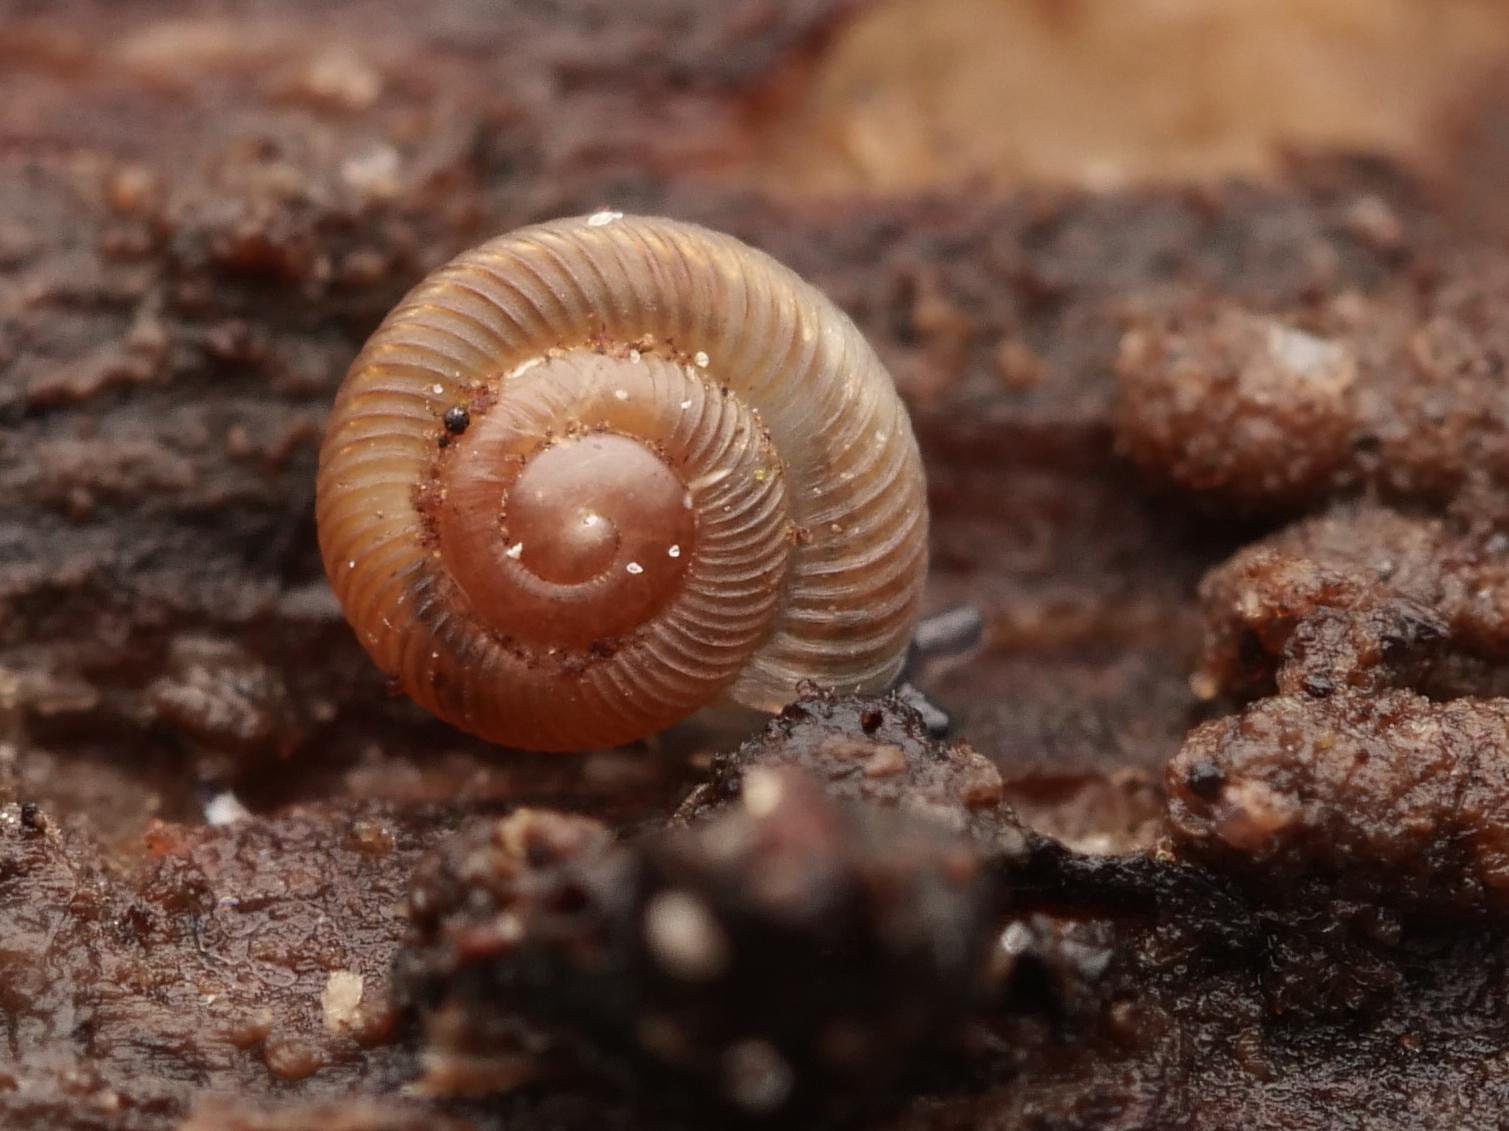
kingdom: Animalia
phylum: Mollusca
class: Gastropoda
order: Stylommatophora
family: Discidae
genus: Discus
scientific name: Discus rotundatus
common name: Rounded snail
